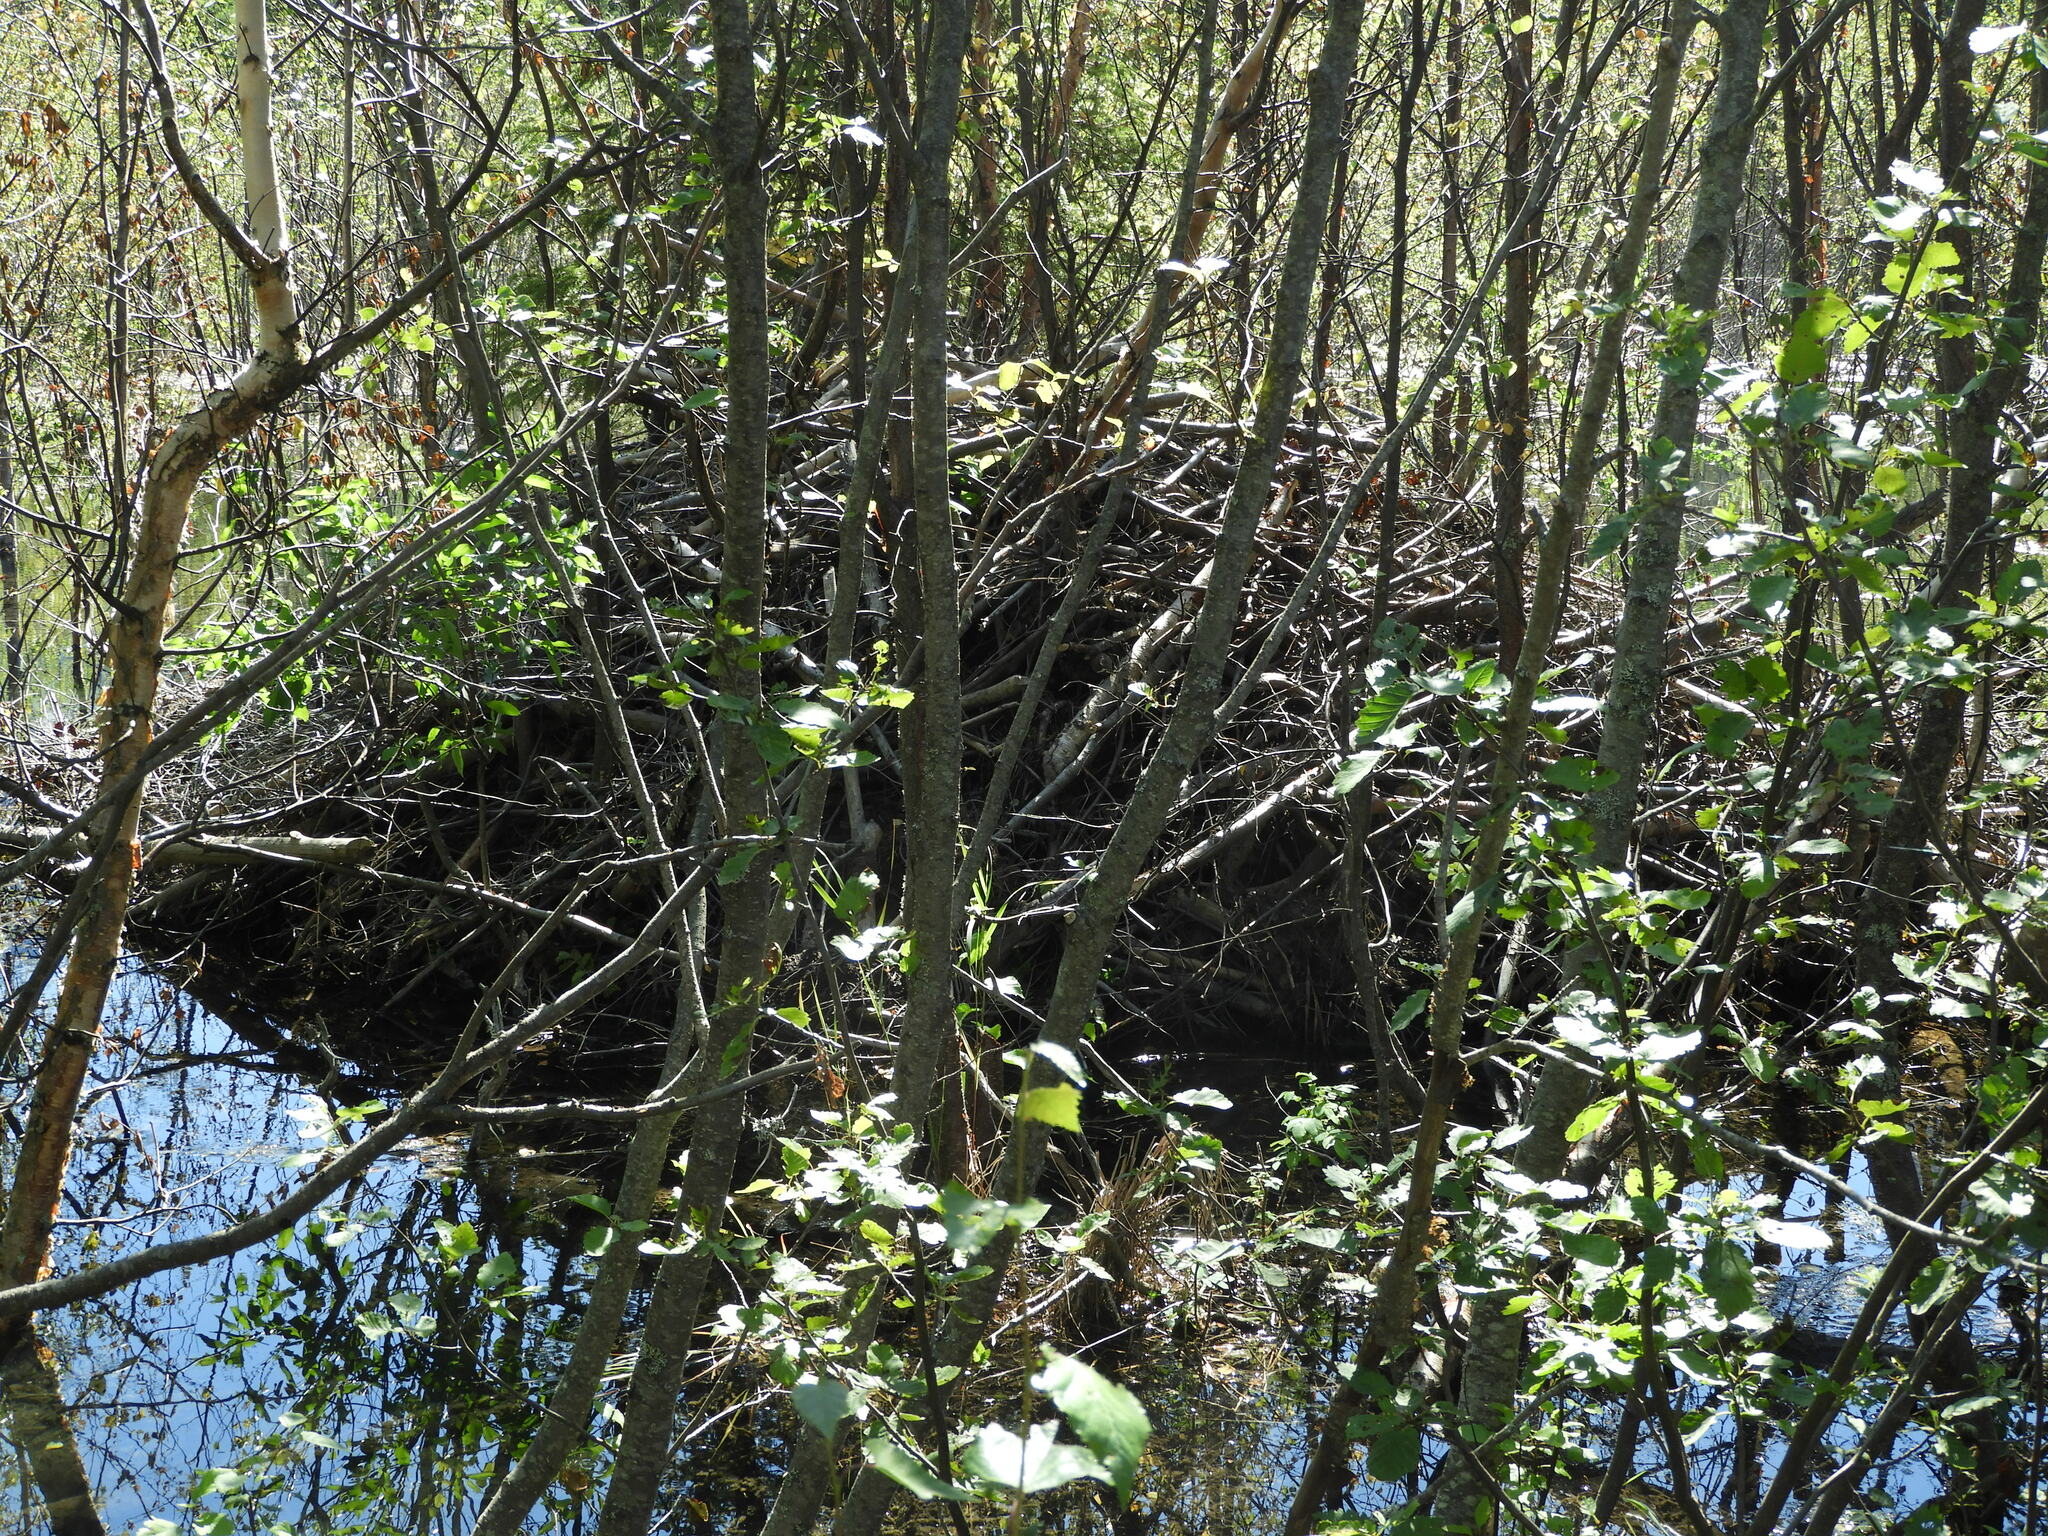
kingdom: Animalia
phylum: Chordata
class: Mammalia
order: Rodentia
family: Castoridae
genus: Castor
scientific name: Castor canadensis
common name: American beaver
